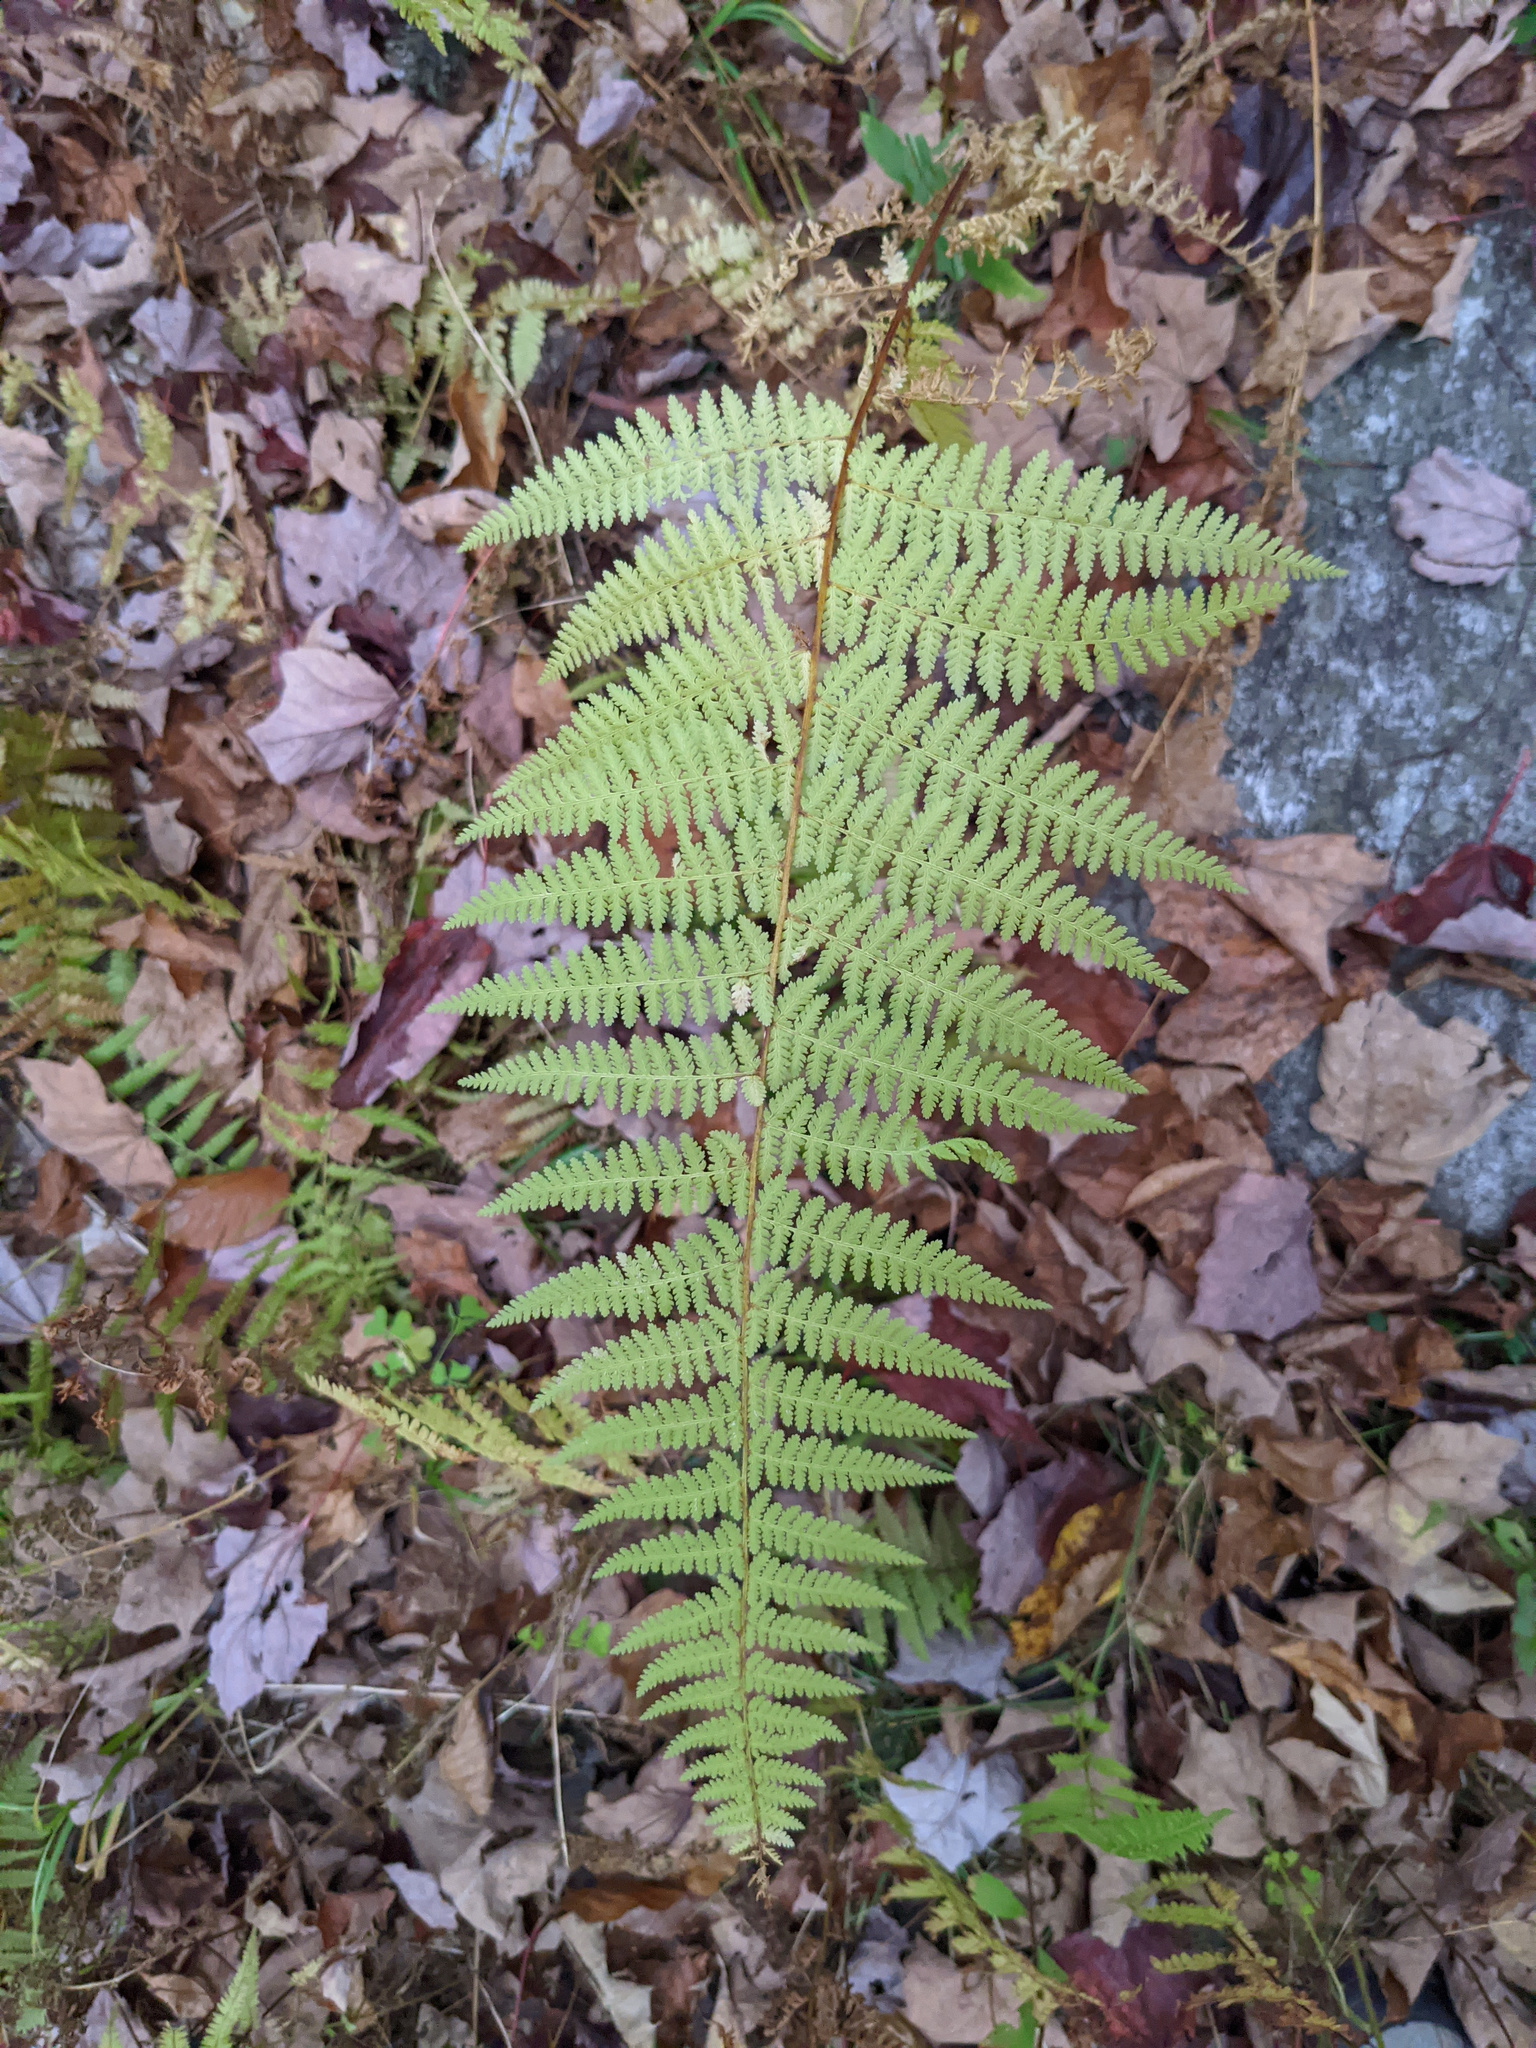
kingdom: Plantae
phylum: Tracheophyta
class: Polypodiopsida
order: Polypodiales
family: Dennstaedtiaceae
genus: Sitobolium
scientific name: Sitobolium punctilobum
